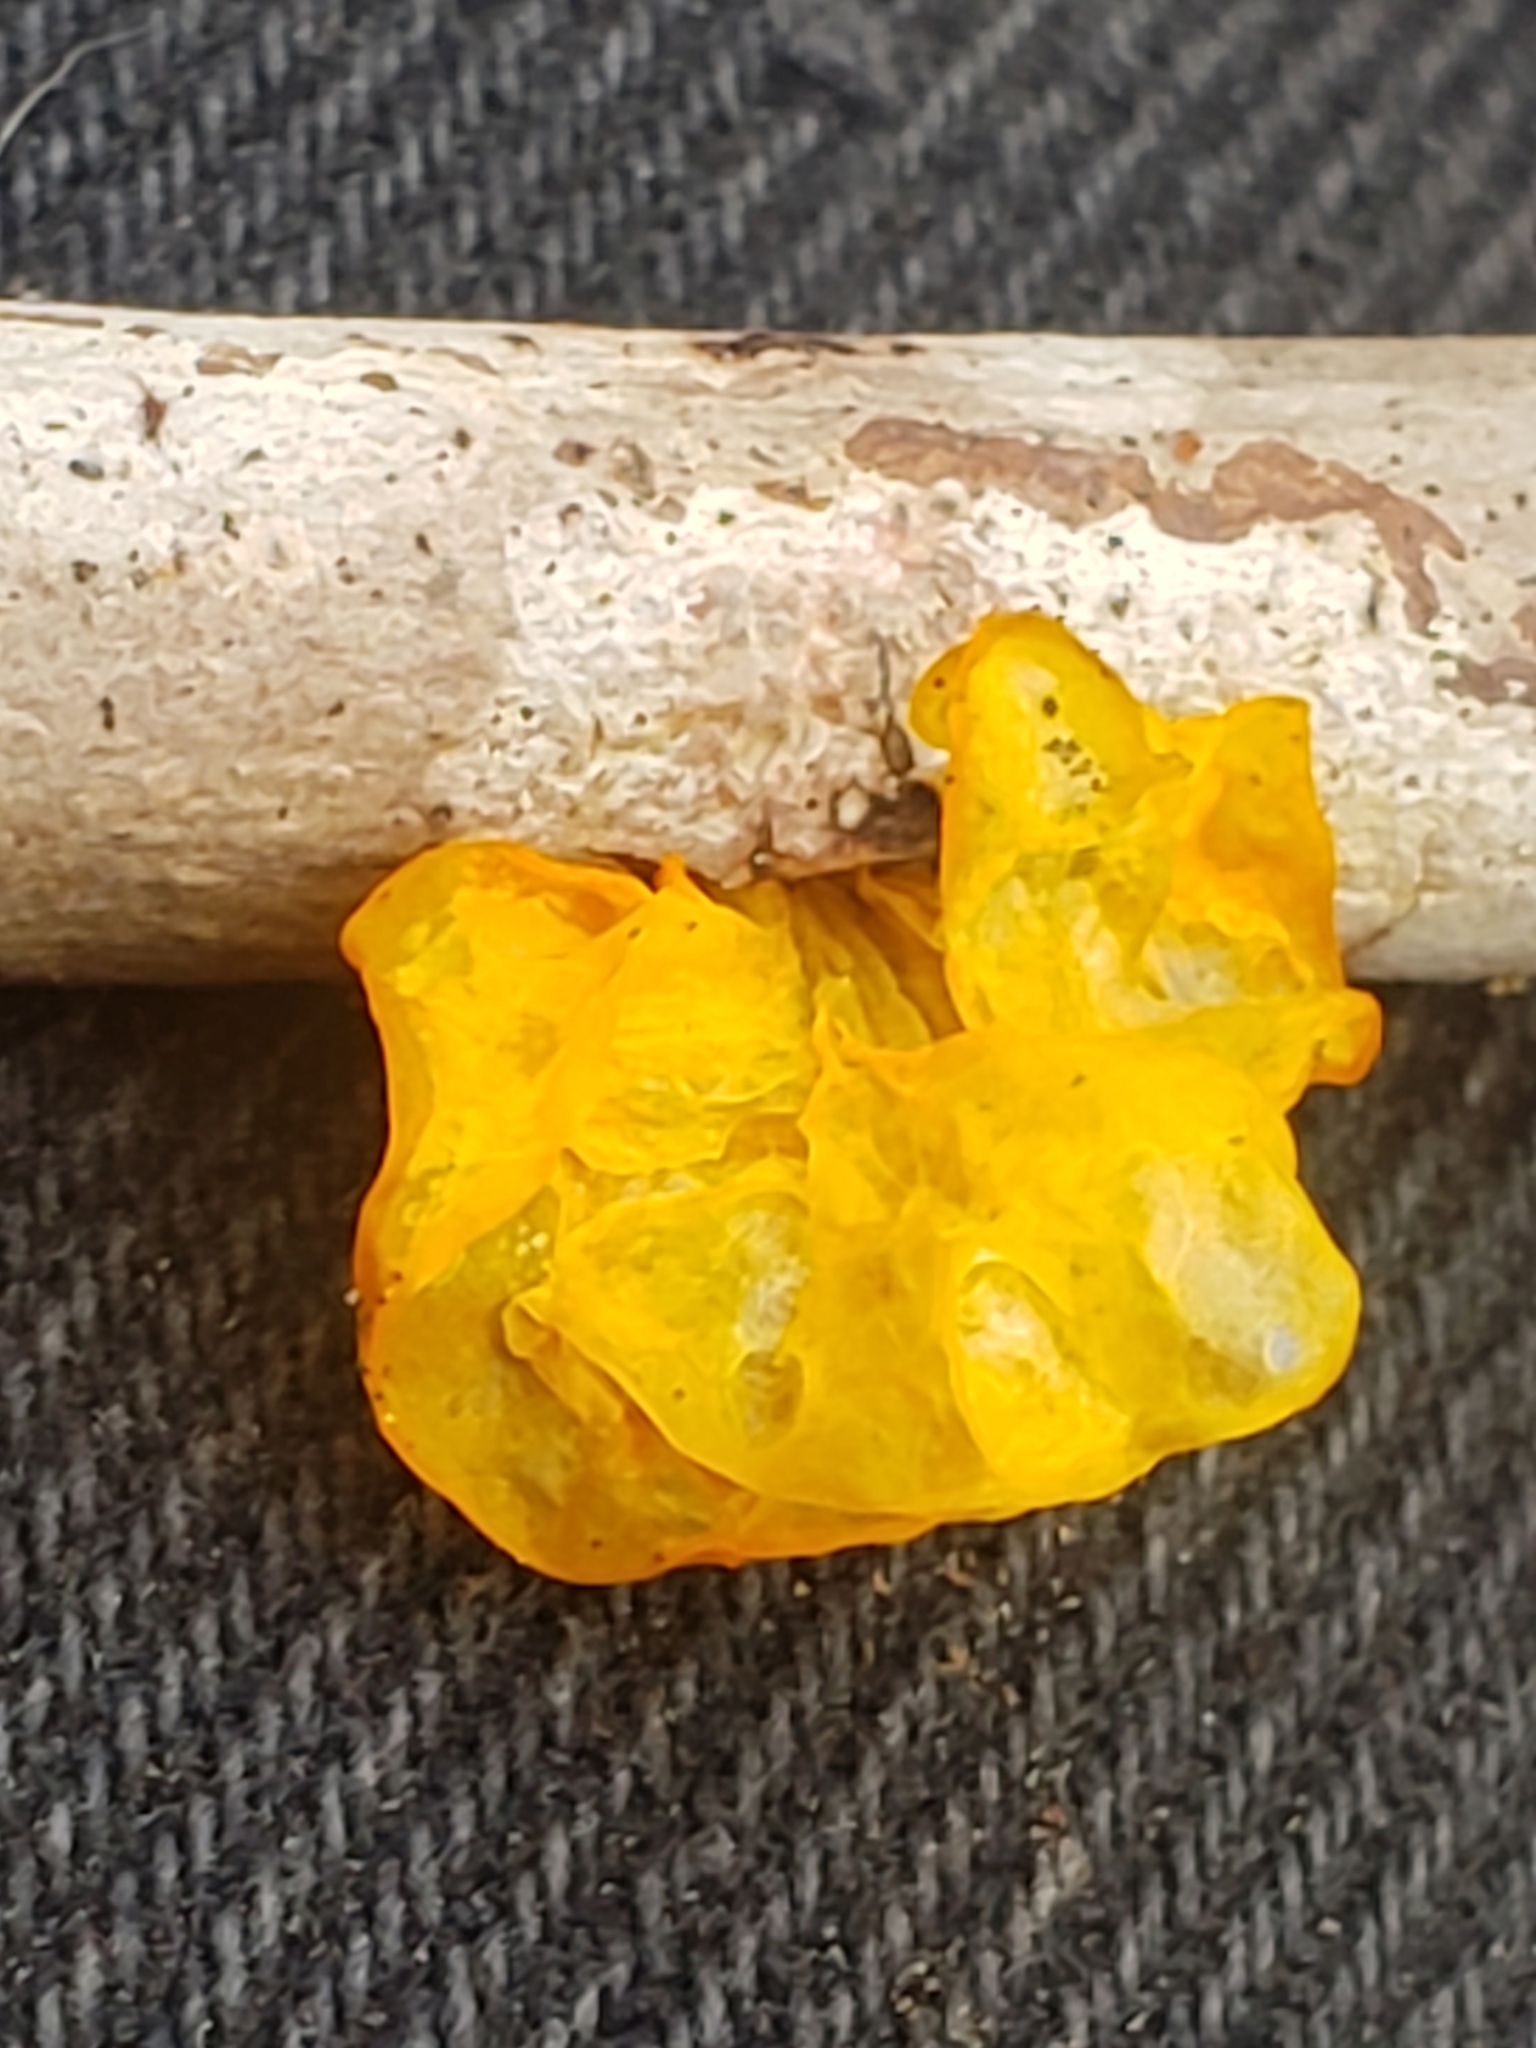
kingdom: Fungi
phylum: Basidiomycota
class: Tremellomycetes
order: Tremellales
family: Tremellaceae
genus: Tremella
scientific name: Tremella mesenterica
